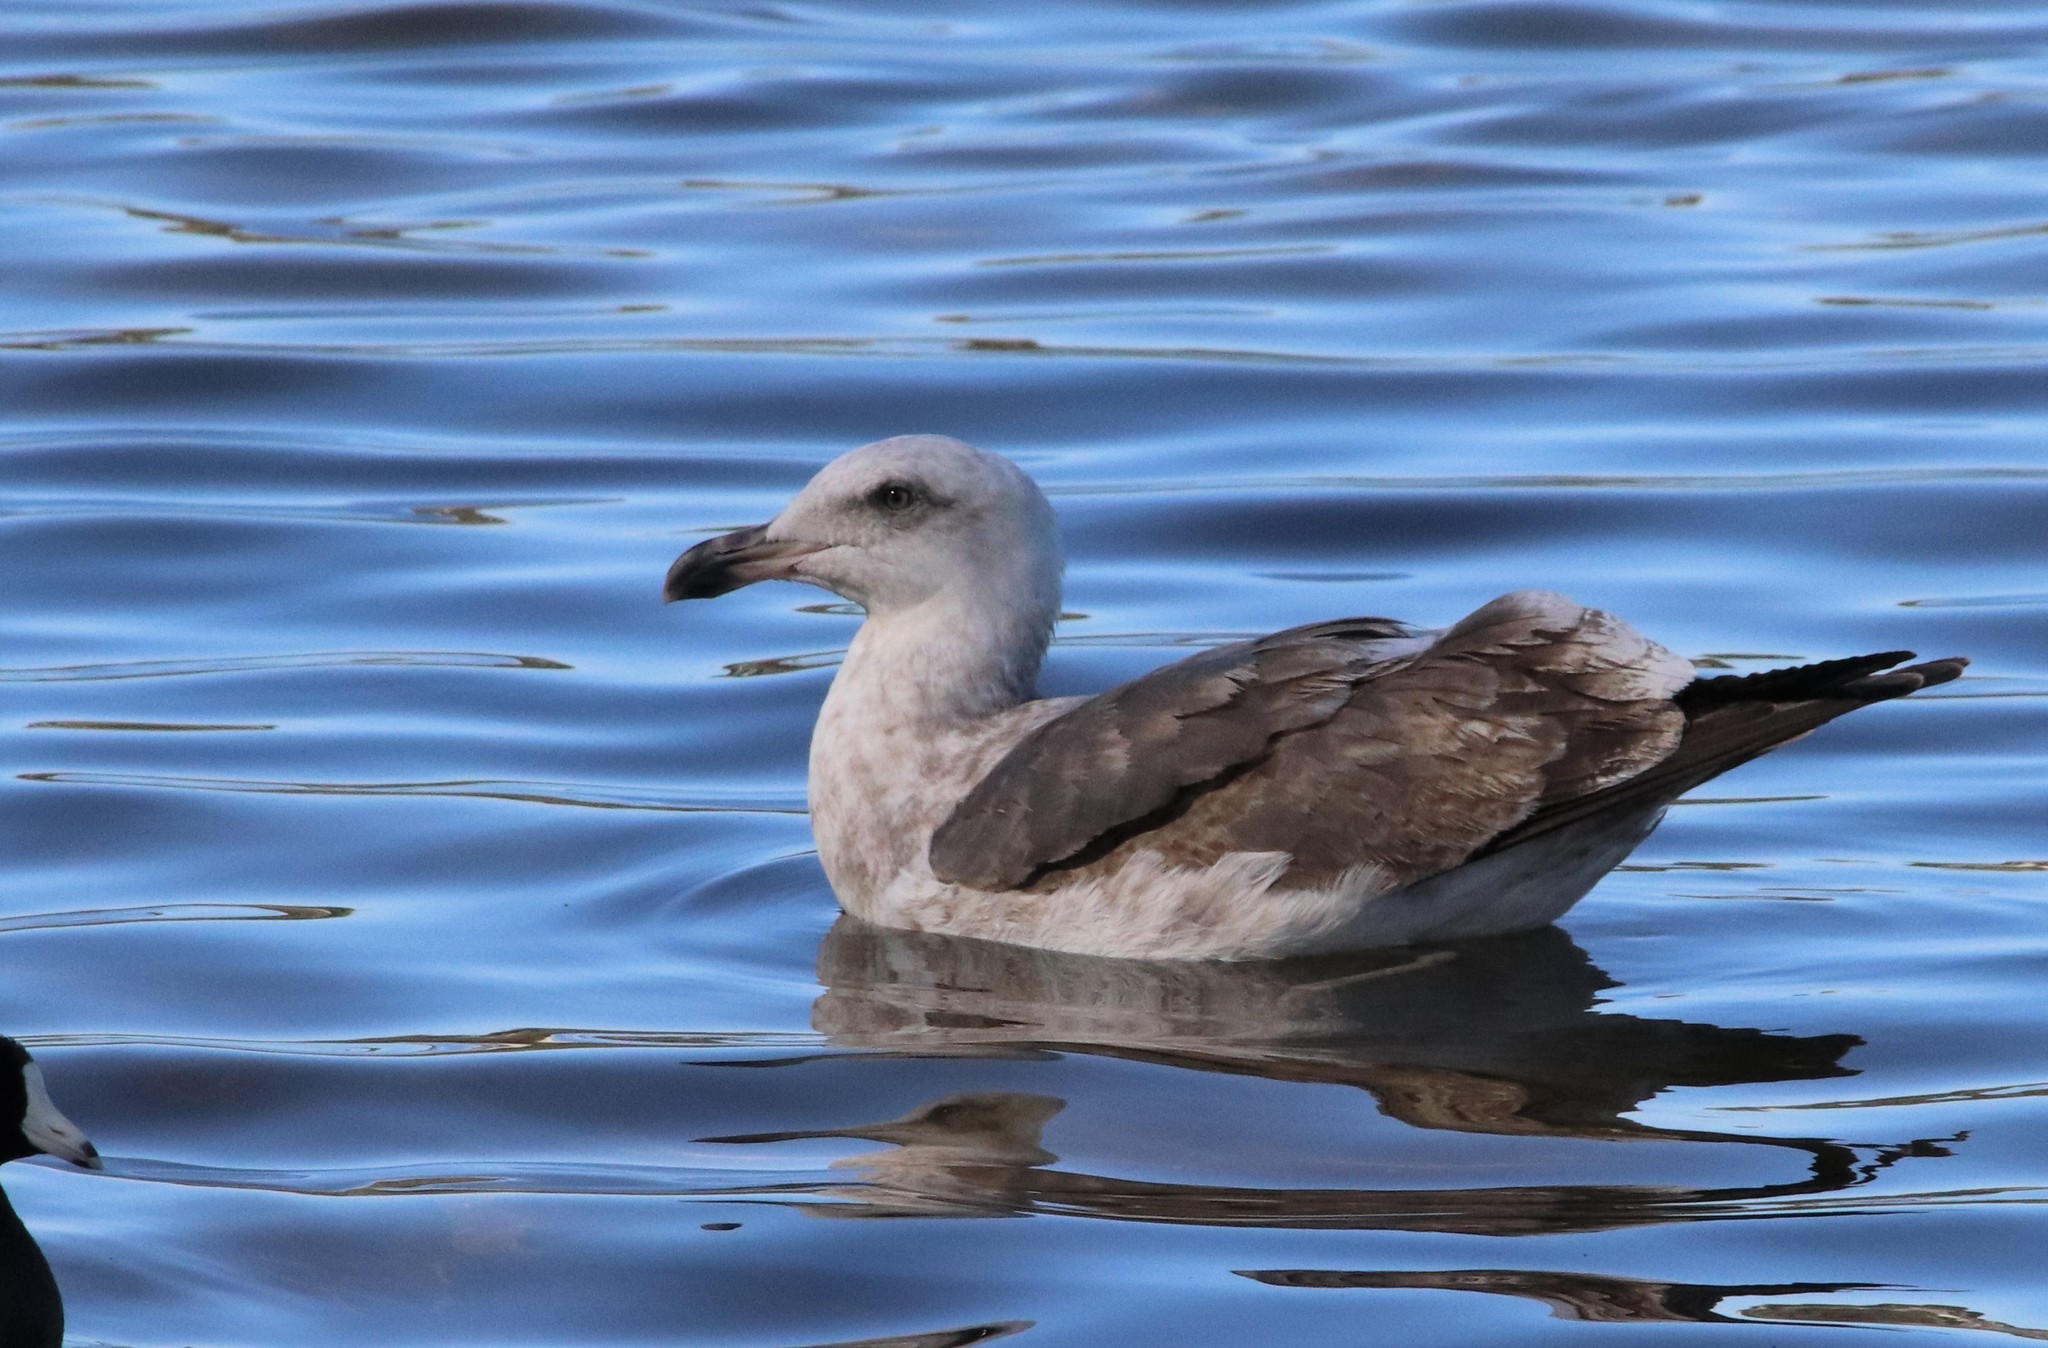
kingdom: Animalia
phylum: Chordata
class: Aves
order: Charadriiformes
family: Laridae
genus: Larus
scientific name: Larus occidentalis
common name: Western gull
